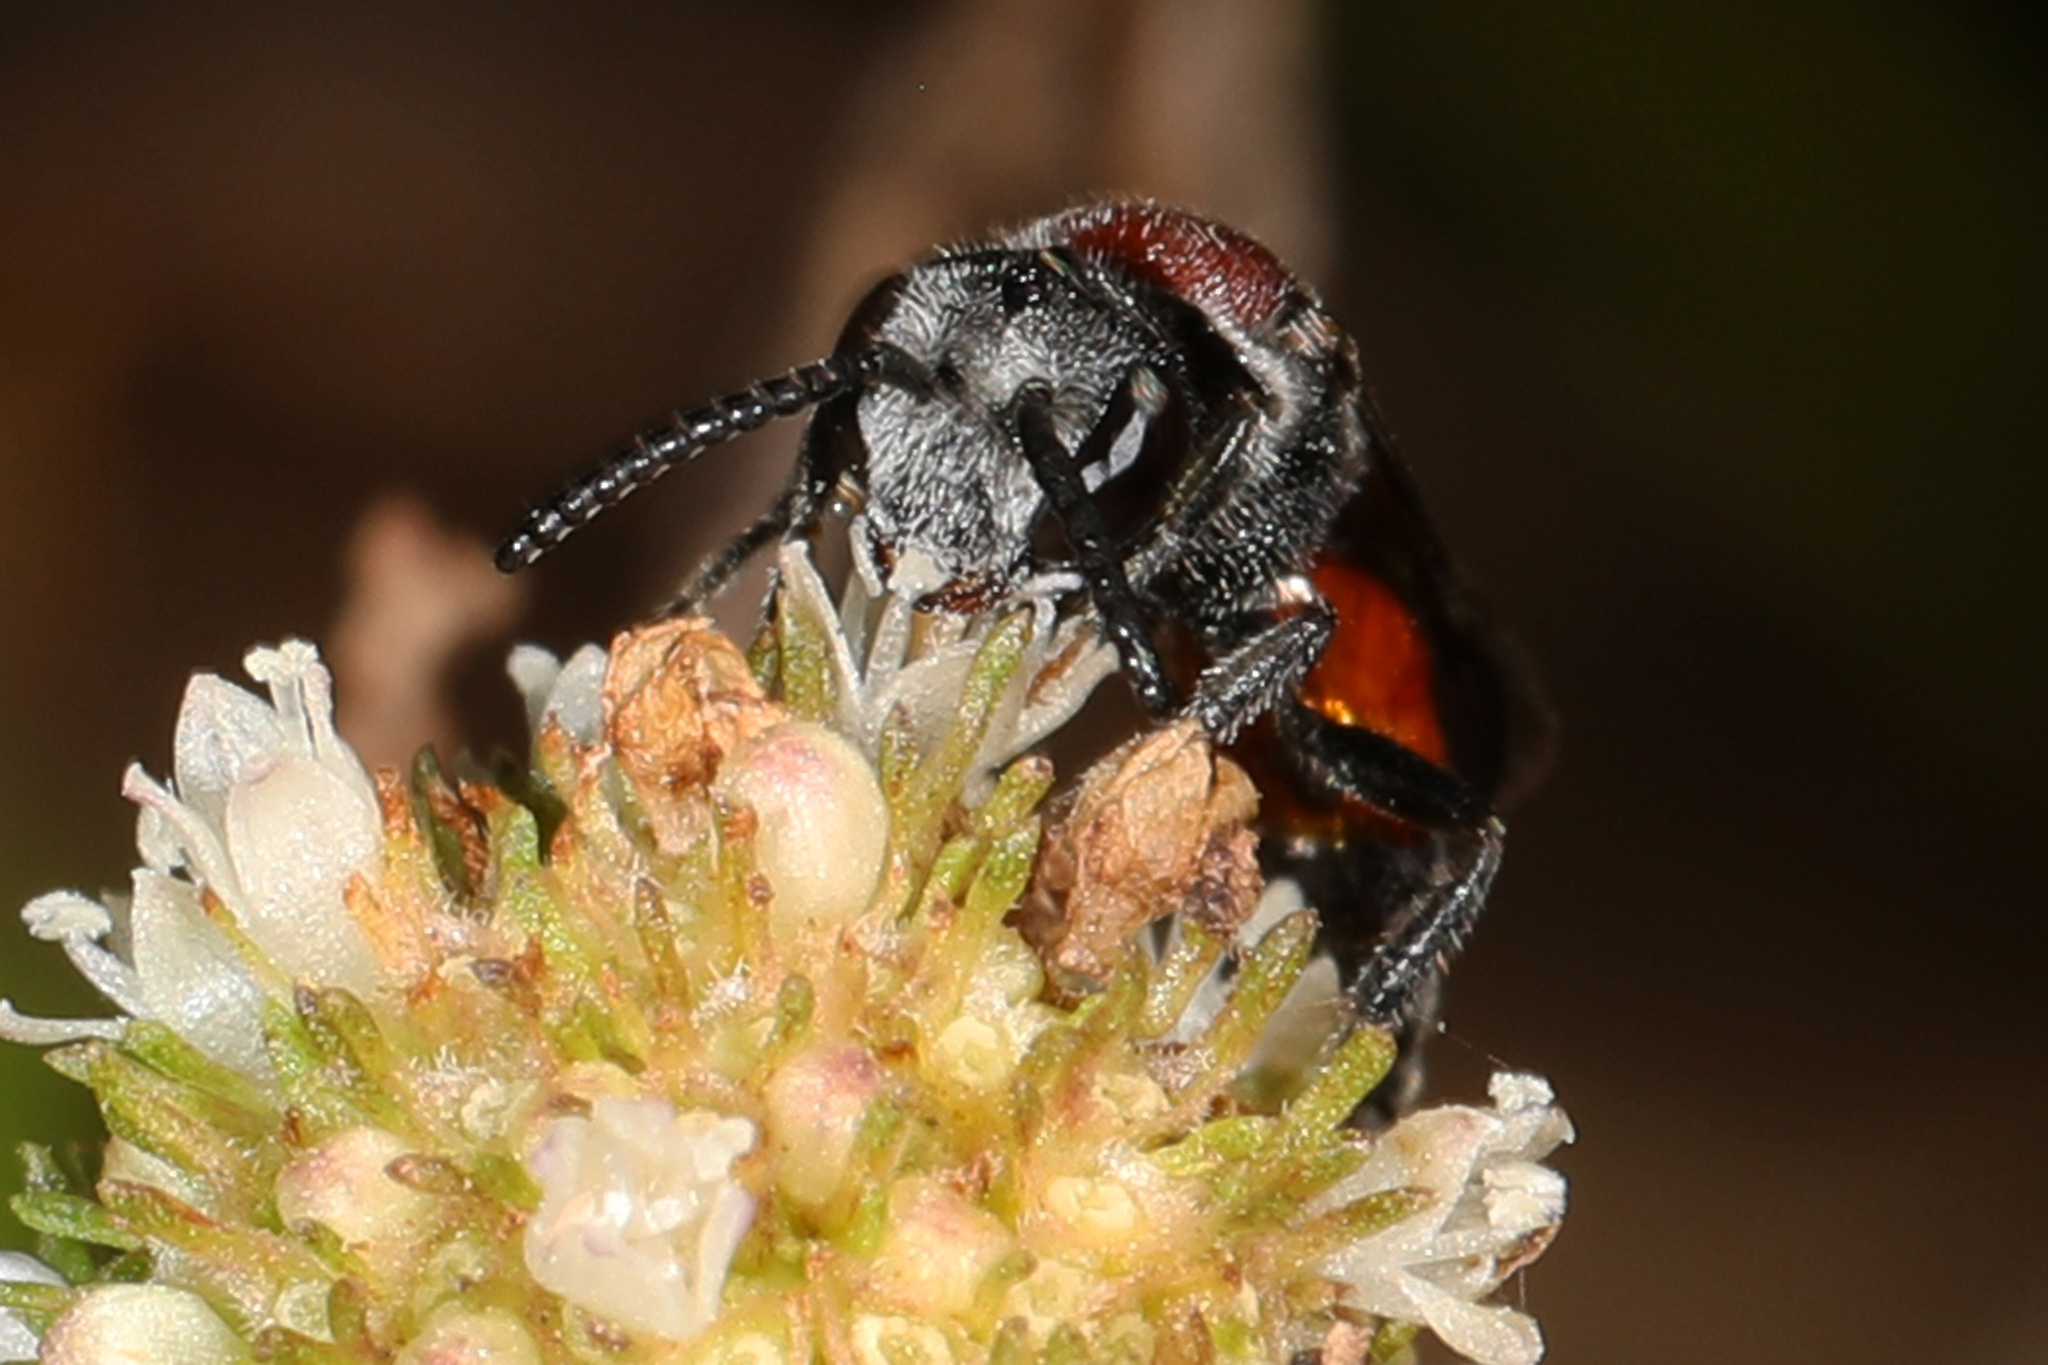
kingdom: Animalia
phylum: Arthropoda
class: Insecta
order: Hymenoptera
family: Halictidae
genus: Sphecodes
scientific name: Sphecodes heraclei
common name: Cyclops cuckoo sweat bee
